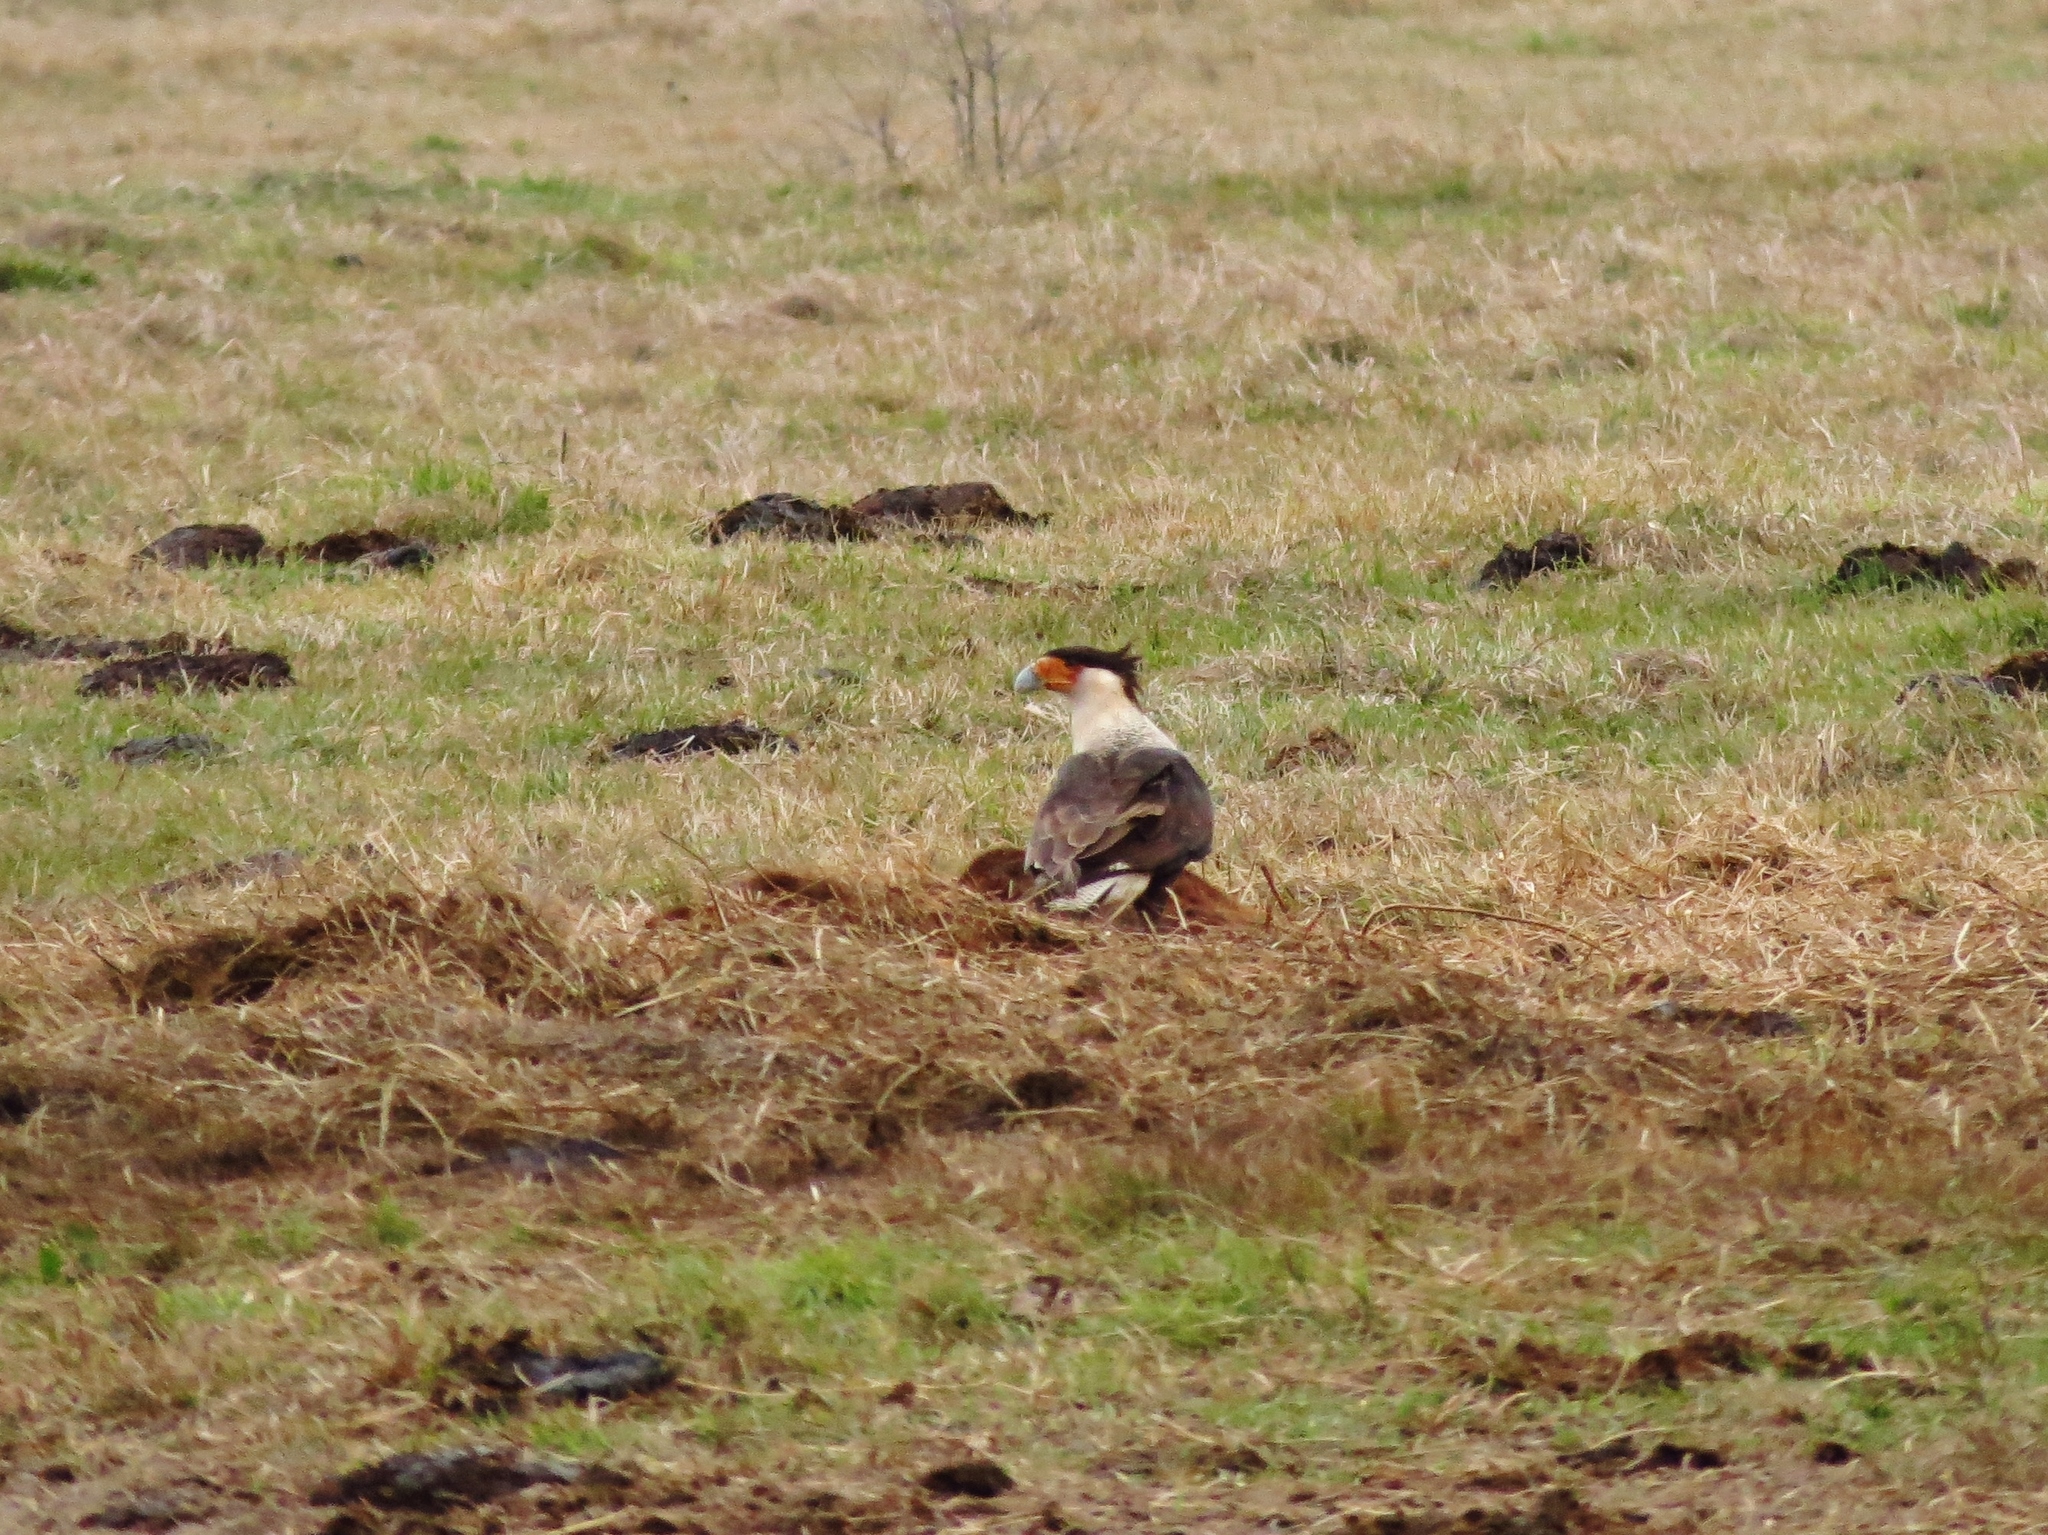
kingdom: Animalia
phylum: Chordata
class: Aves
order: Falconiformes
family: Falconidae
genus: Caracara
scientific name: Caracara plancus
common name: Southern caracara
